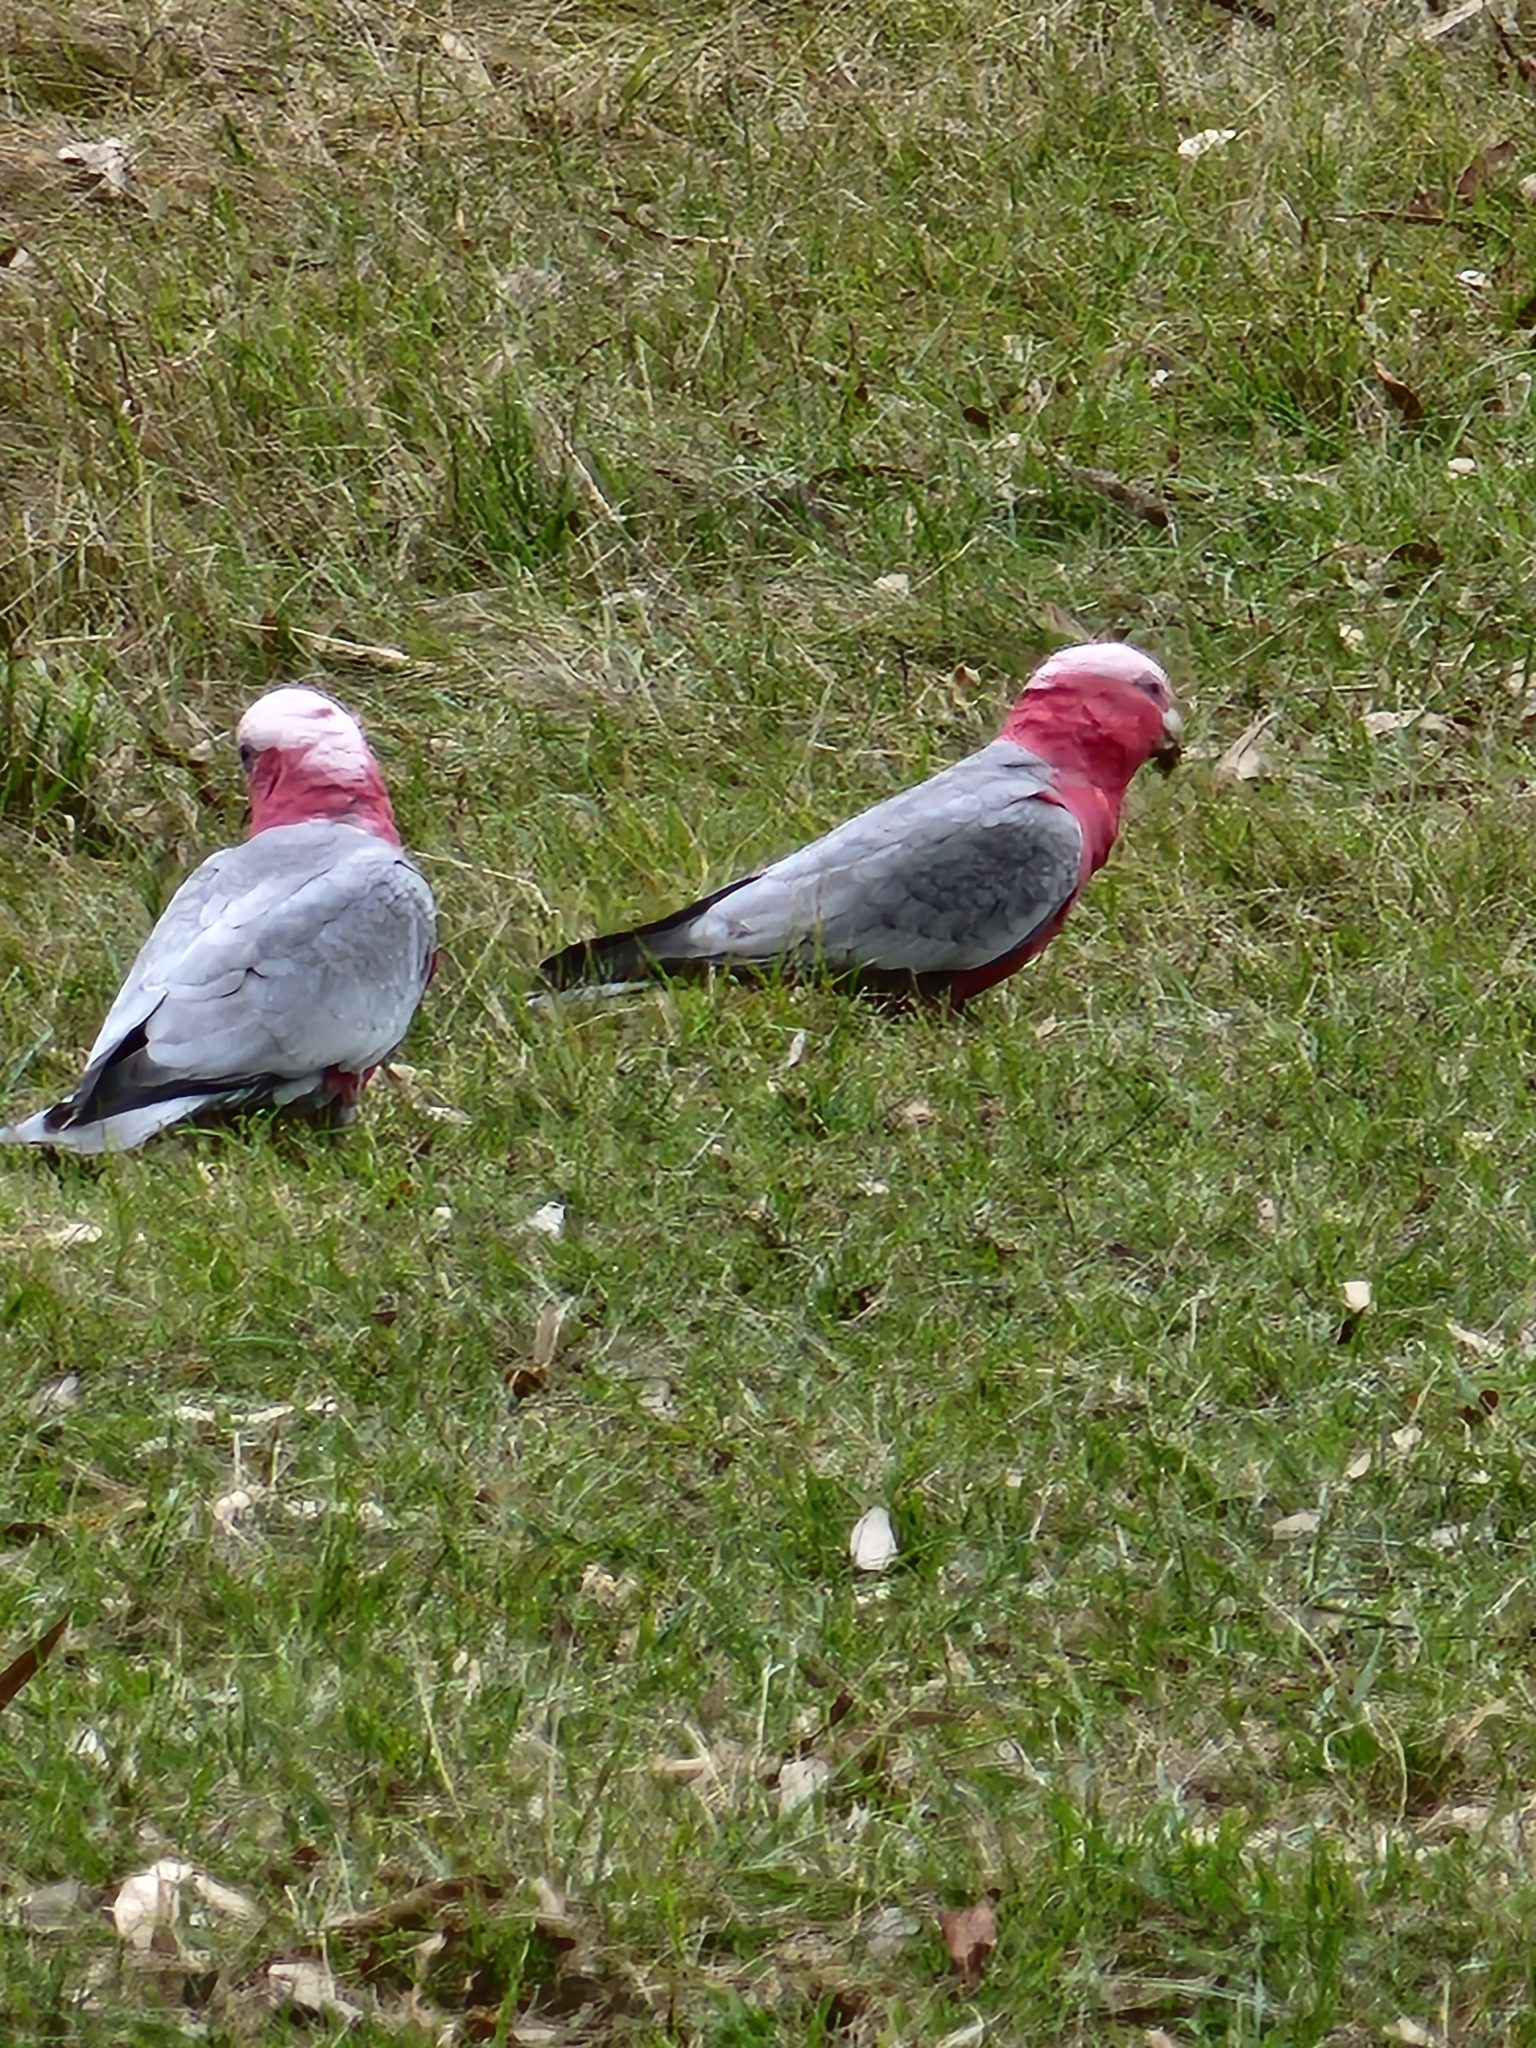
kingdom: Animalia
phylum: Chordata
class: Aves
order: Psittaciformes
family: Psittacidae
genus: Eolophus
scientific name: Eolophus roseicapilla
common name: Galah
